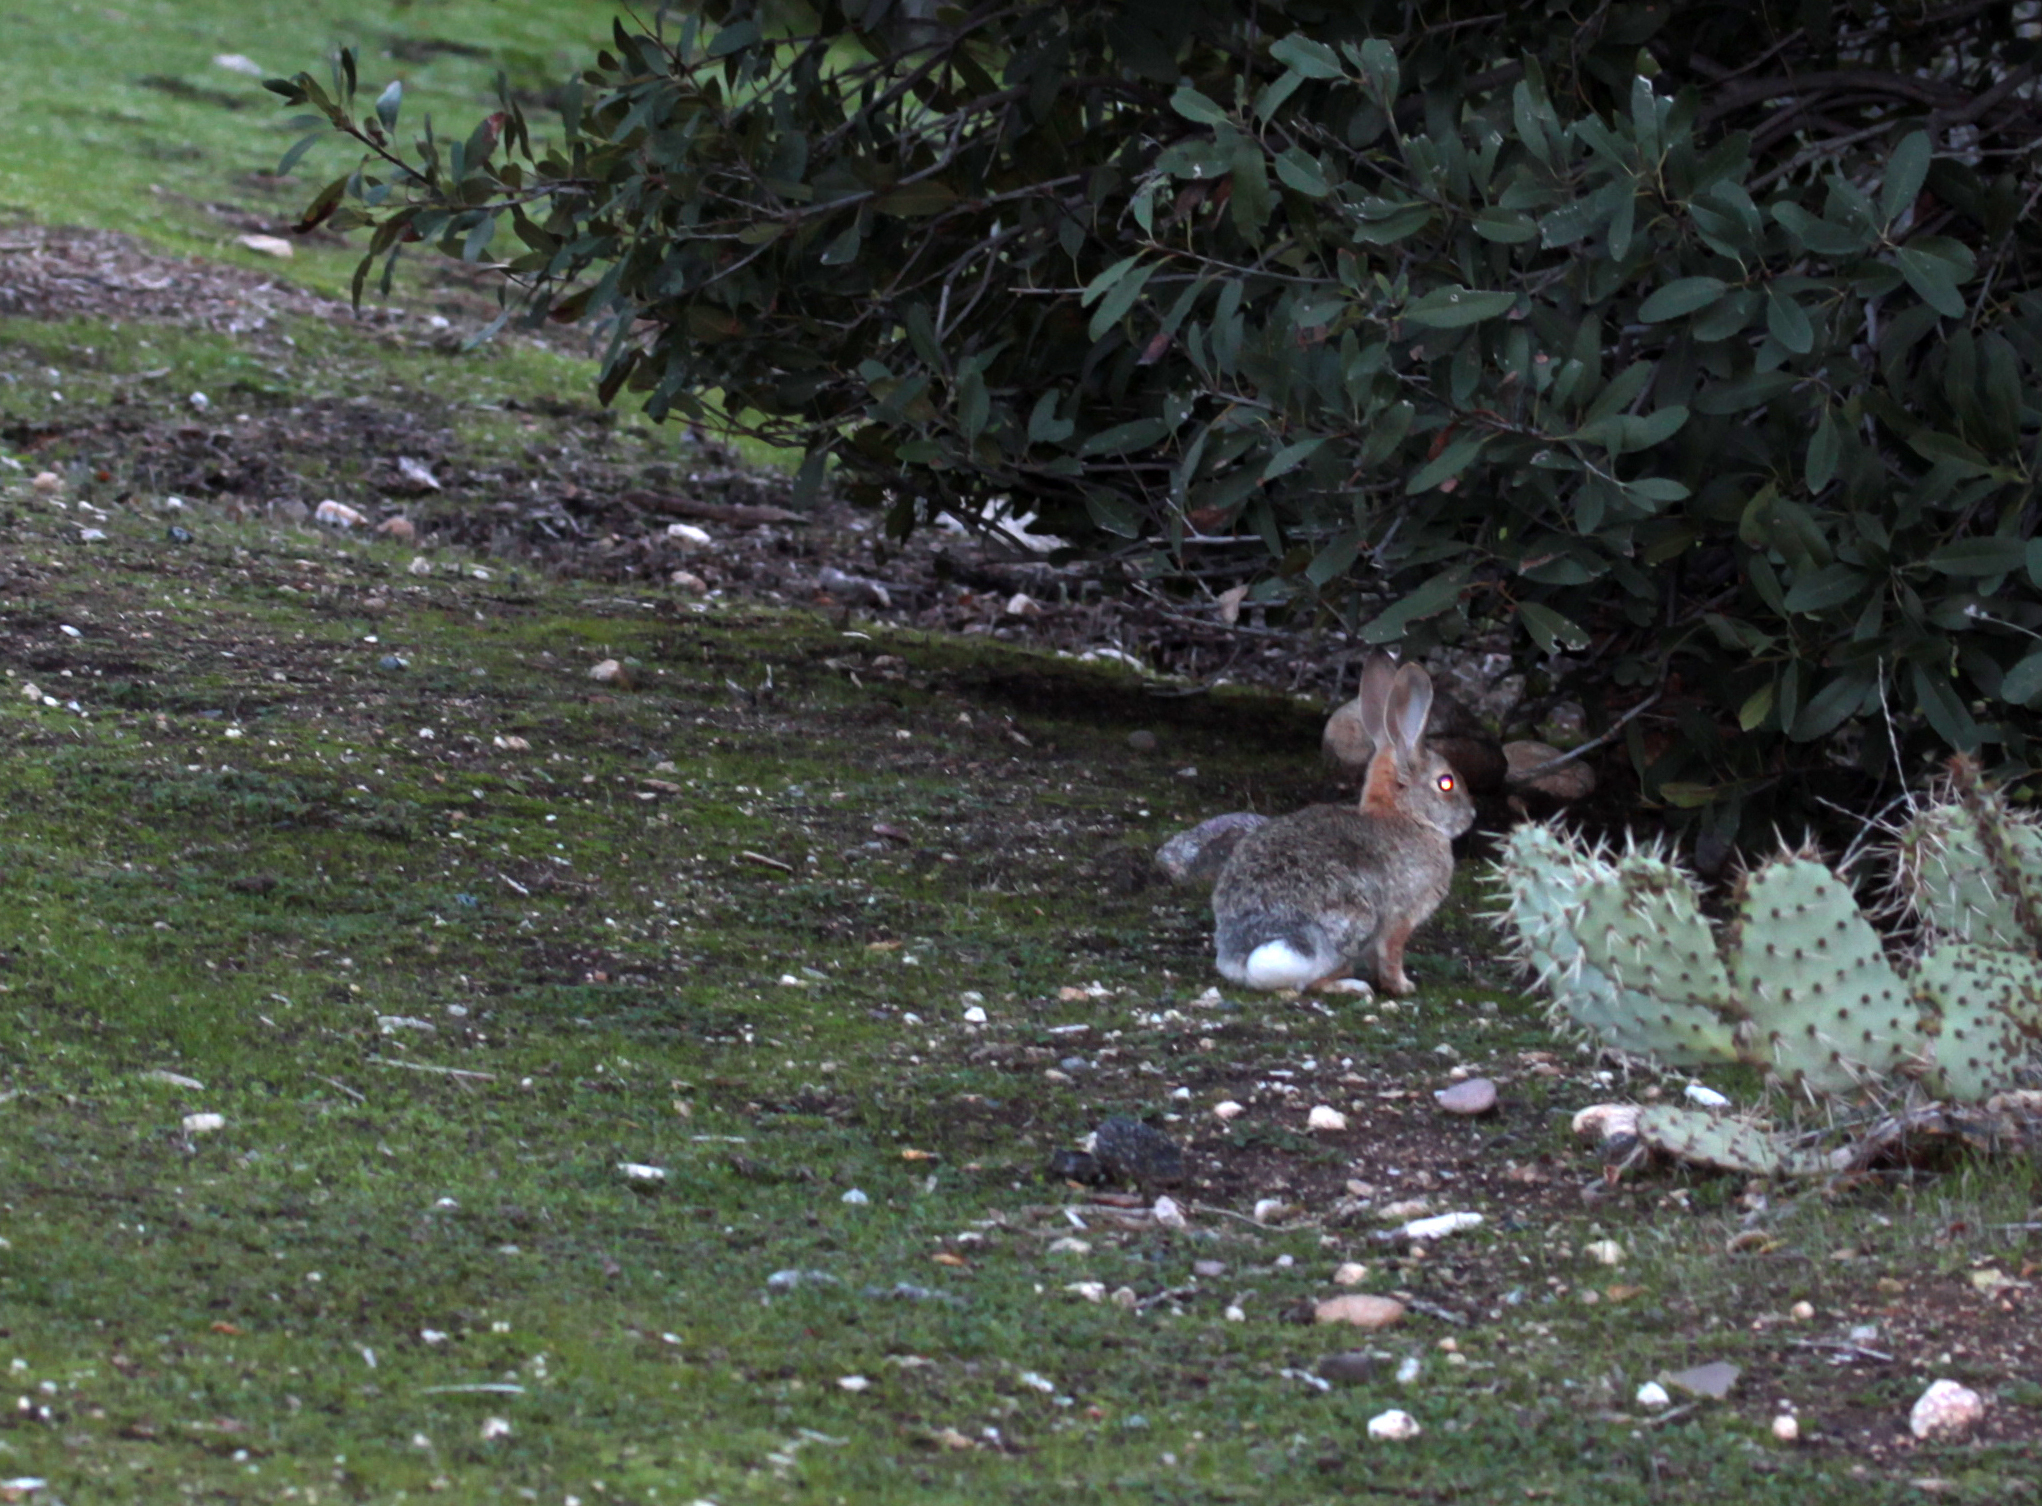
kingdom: Animalia
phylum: Chordata
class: Mammalia
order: Lagomorpha
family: Leporidae
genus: Sylvilagus
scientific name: Sylvilagus audubonii
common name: Desert cottontail
